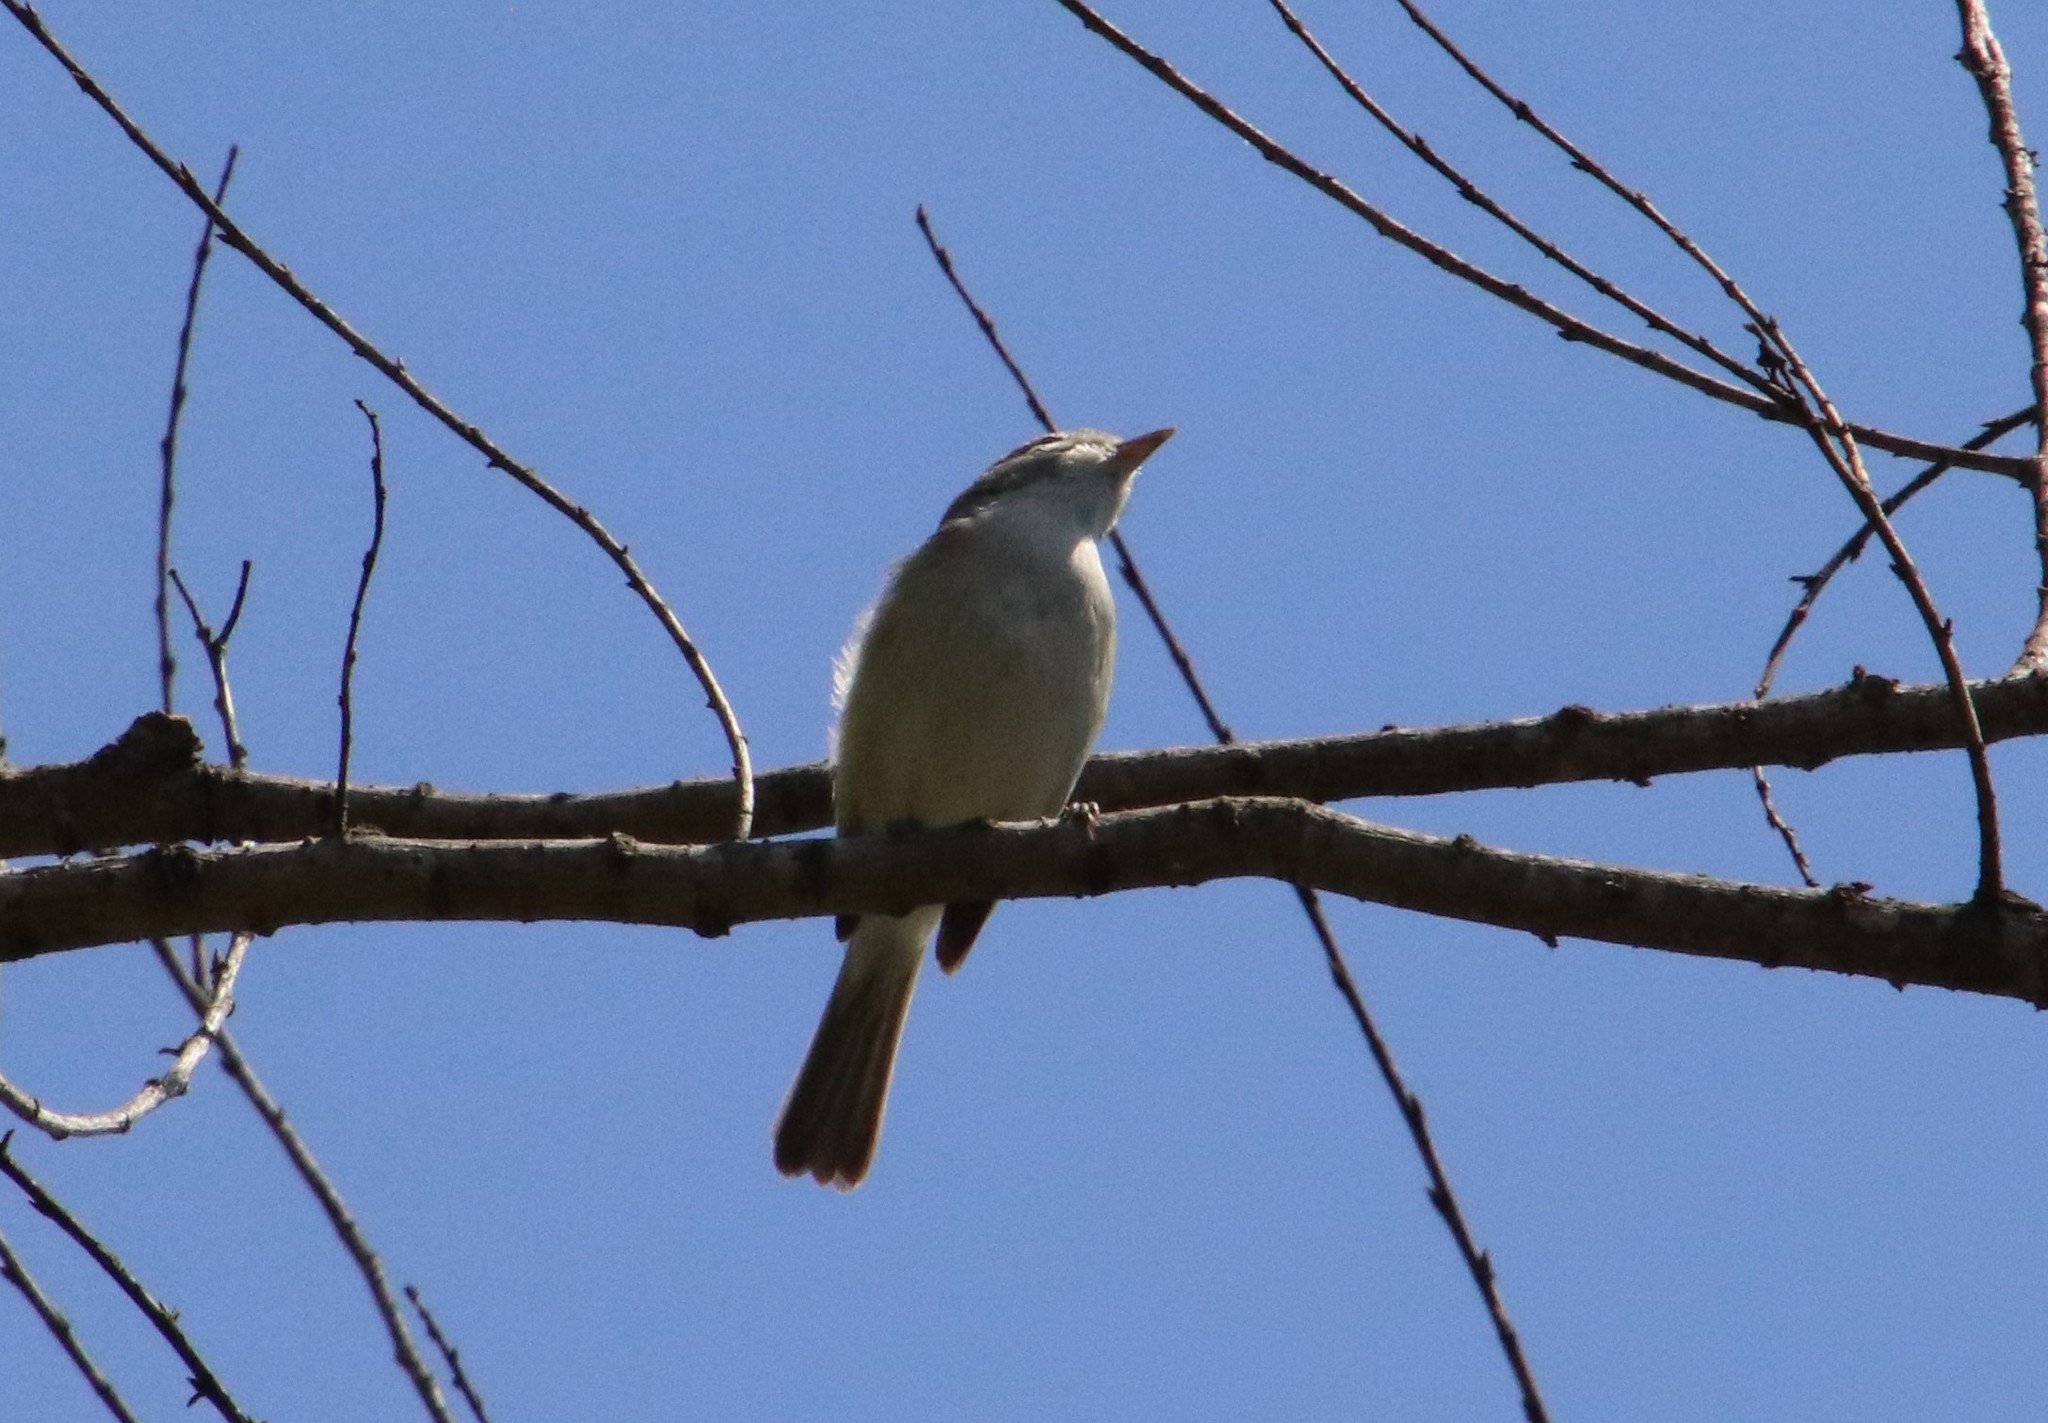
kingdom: Animalia
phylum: Chordata
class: Aves
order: Passeriformes
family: Vireonidae
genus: Vireo
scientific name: Vireo bellii
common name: Bell's vireo
